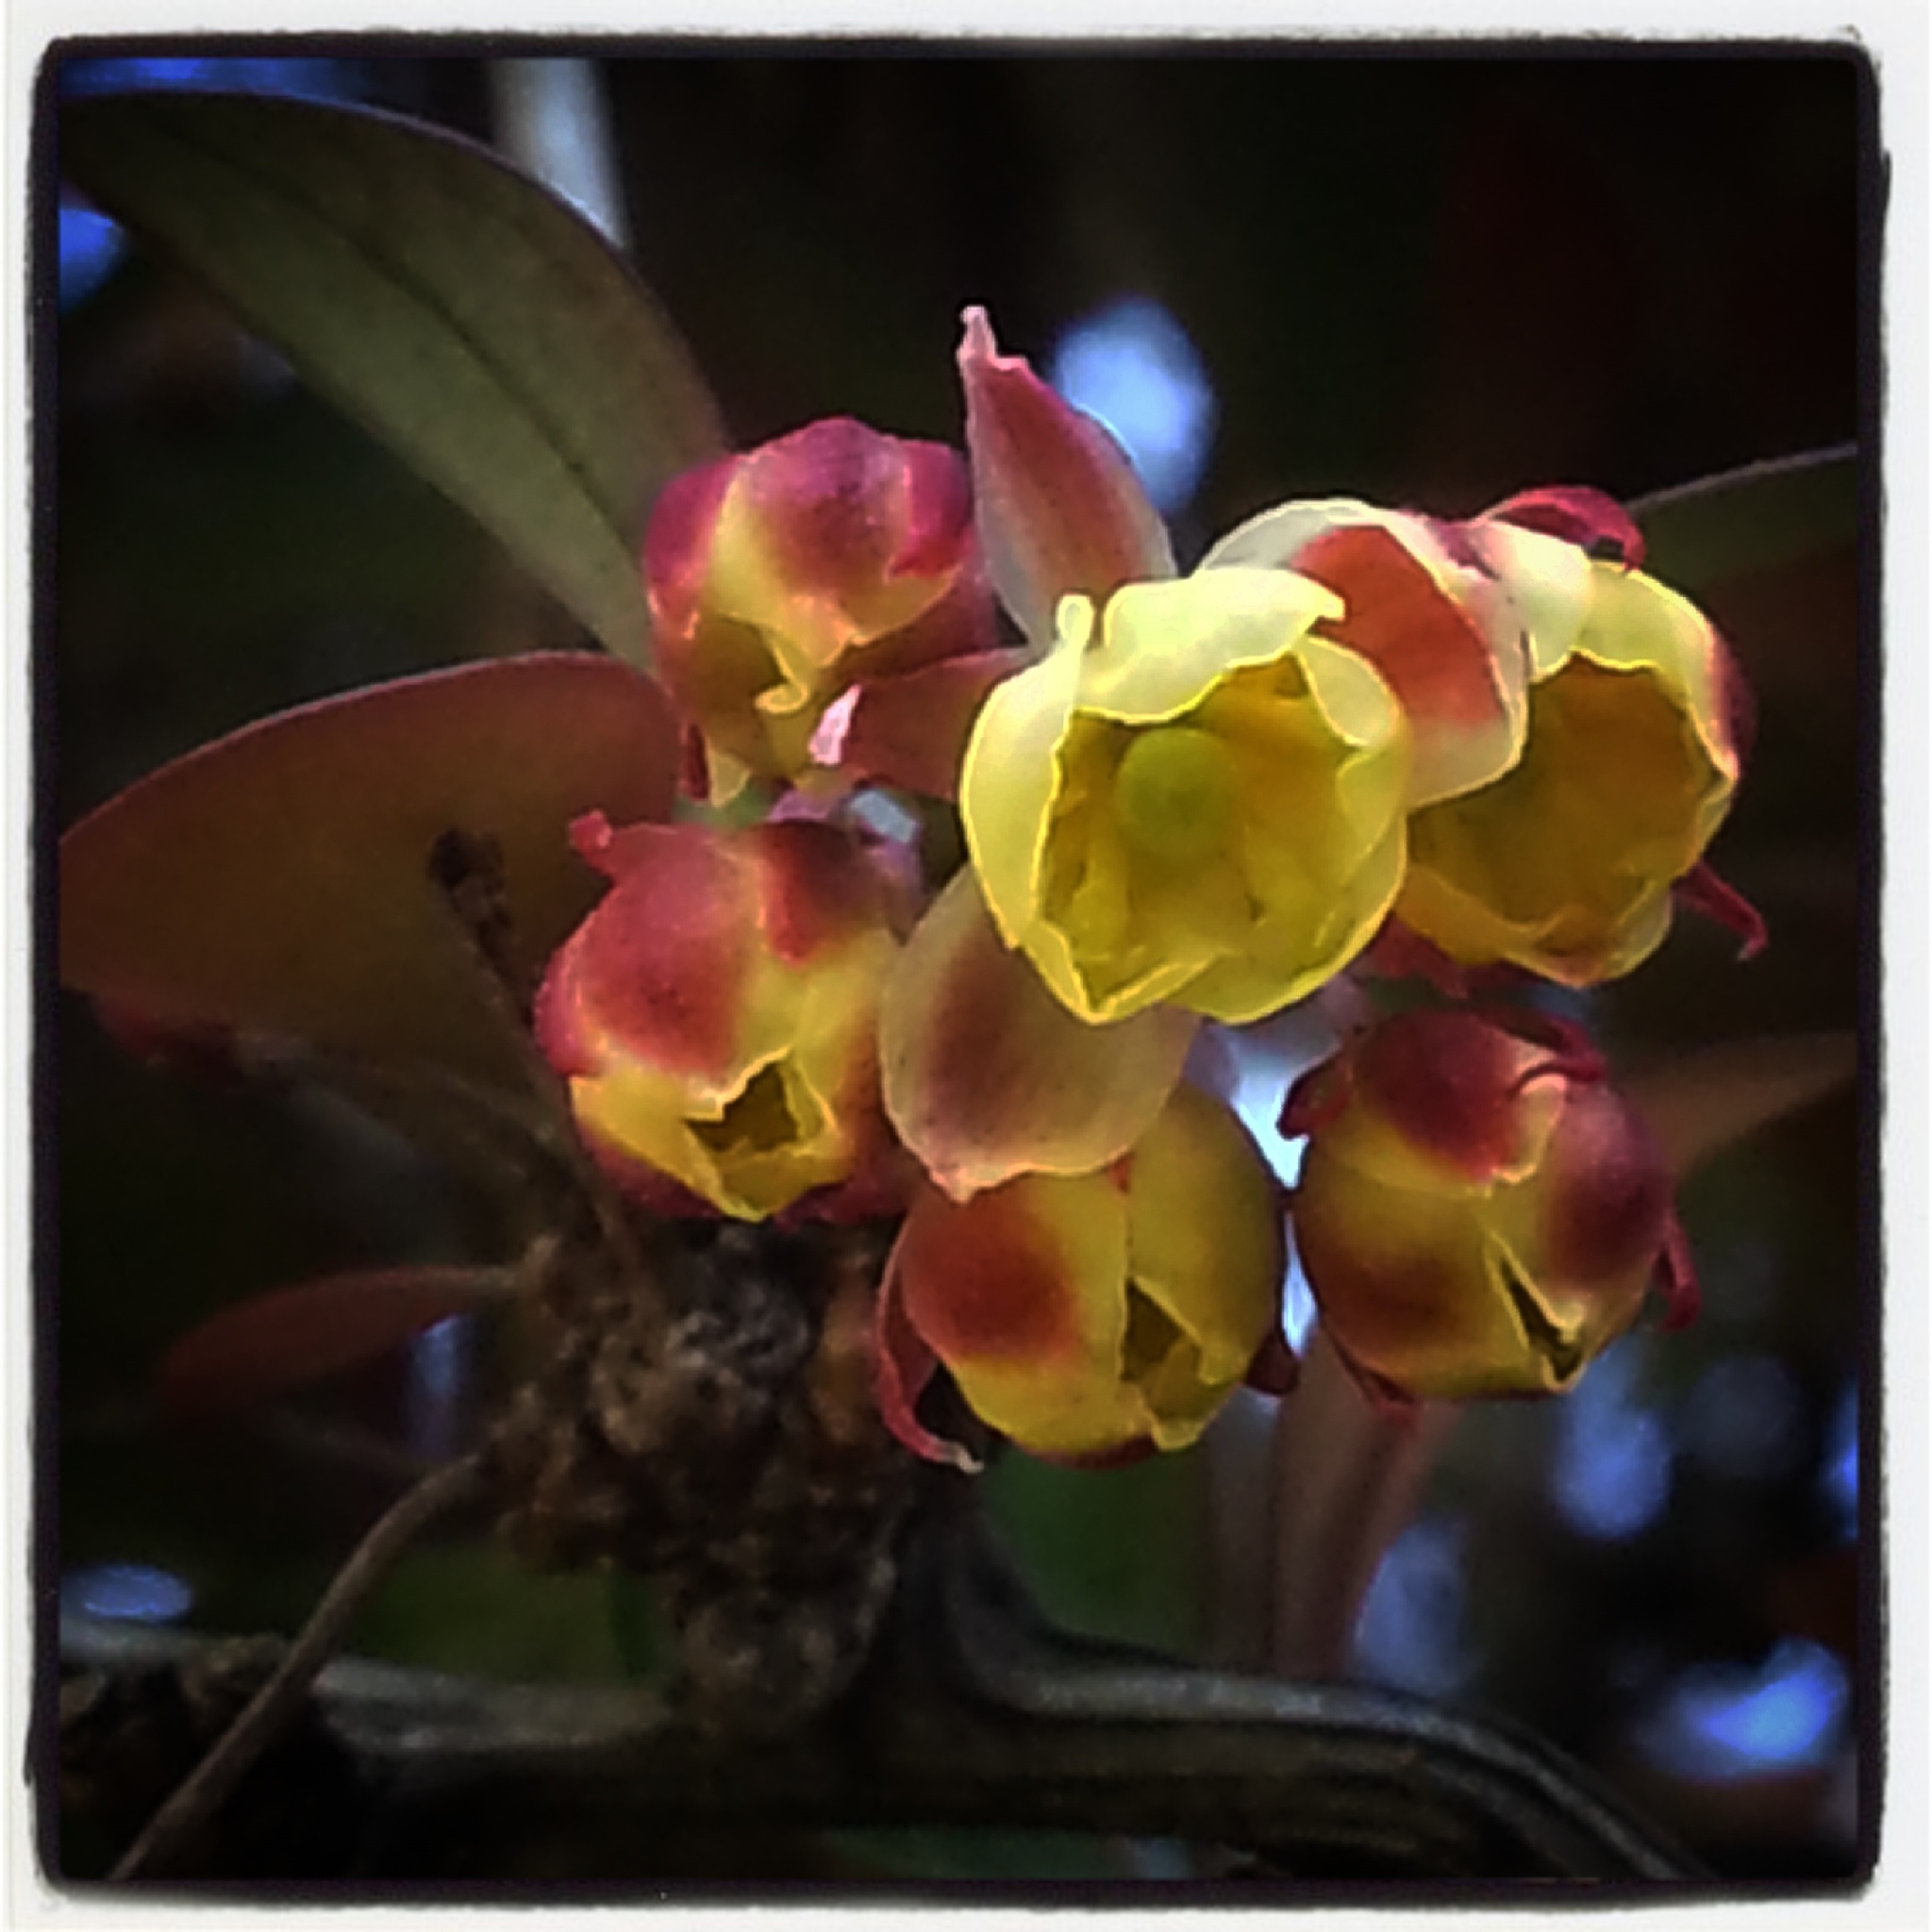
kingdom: Plantae
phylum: Tracheophyta
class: Magnoliopsida
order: Ranunculales
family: Berberidaceae
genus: Berberis
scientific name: Berberis vulgaris
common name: Barberry
